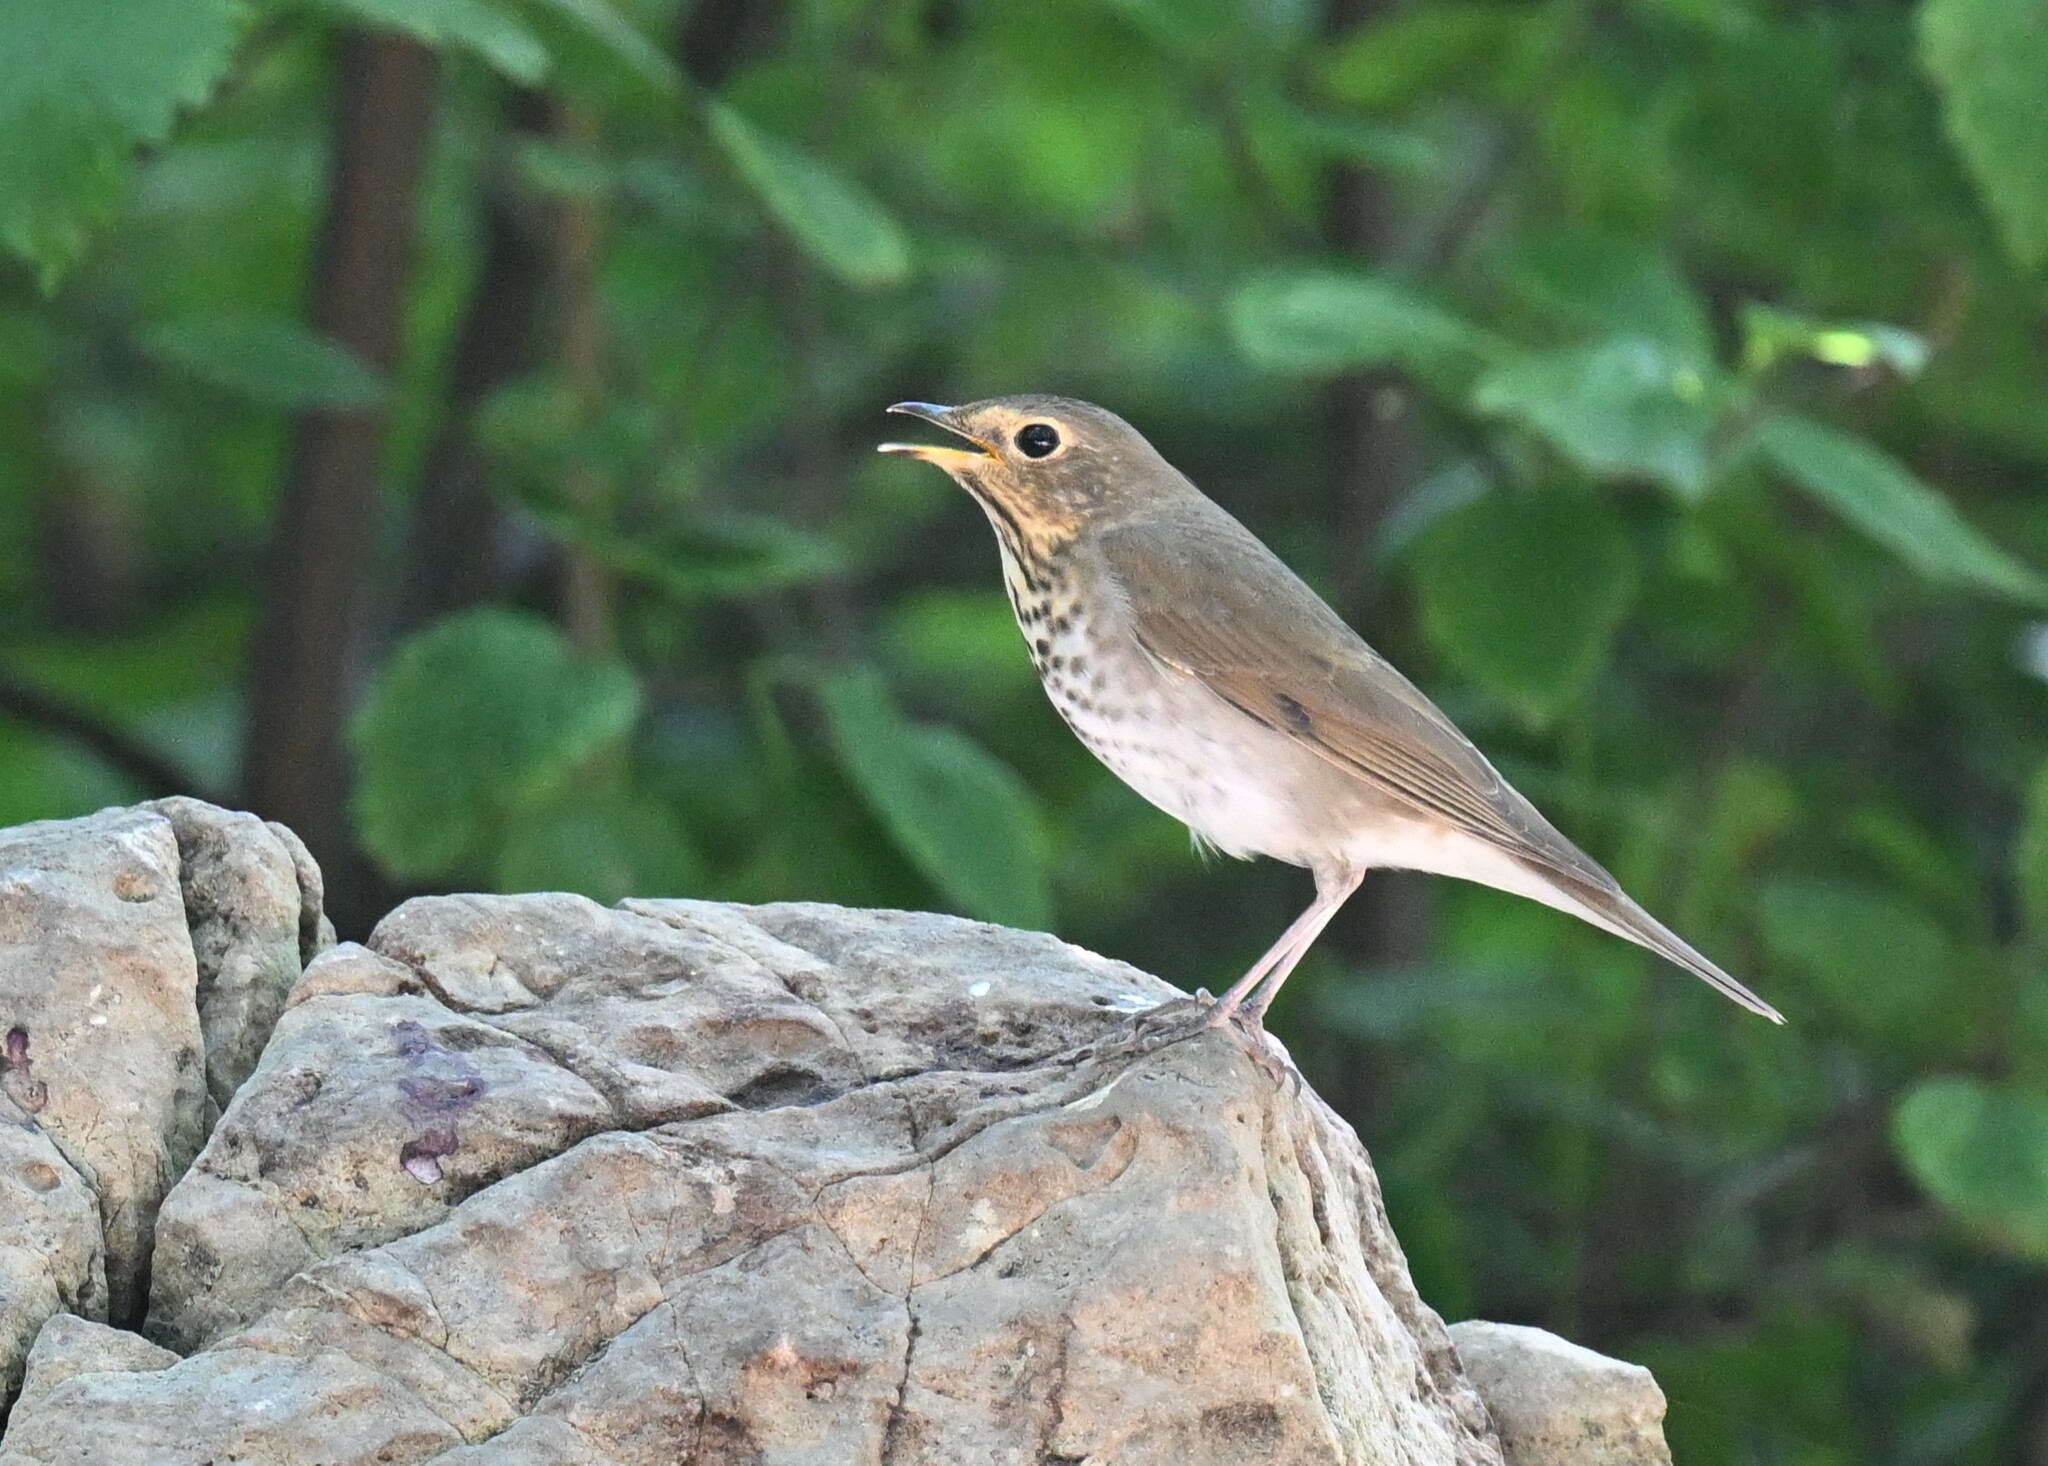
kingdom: Animalia
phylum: Chordata
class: Aves
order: Passeriformes
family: Turdidae
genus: Catharus
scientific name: Catharus ustulatus
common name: Swainson's thrush
